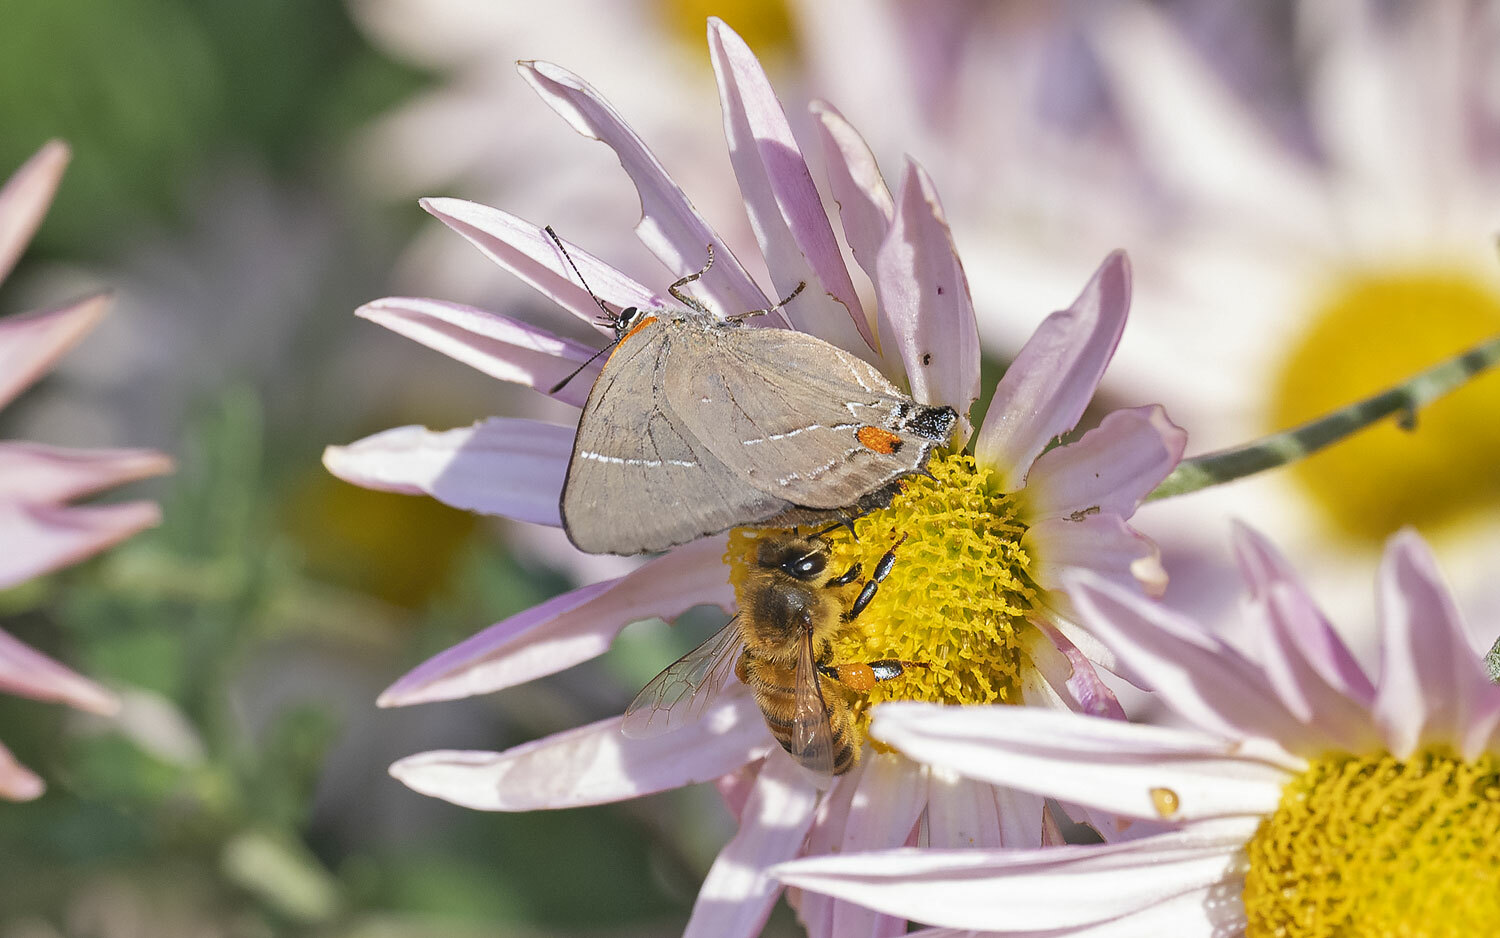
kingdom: Animalia
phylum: Arthropoda
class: Insecta
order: Lepidoptera
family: Lycaenidae
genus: Parrhasius
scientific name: Parrhasius m-album
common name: White m hairstreak
